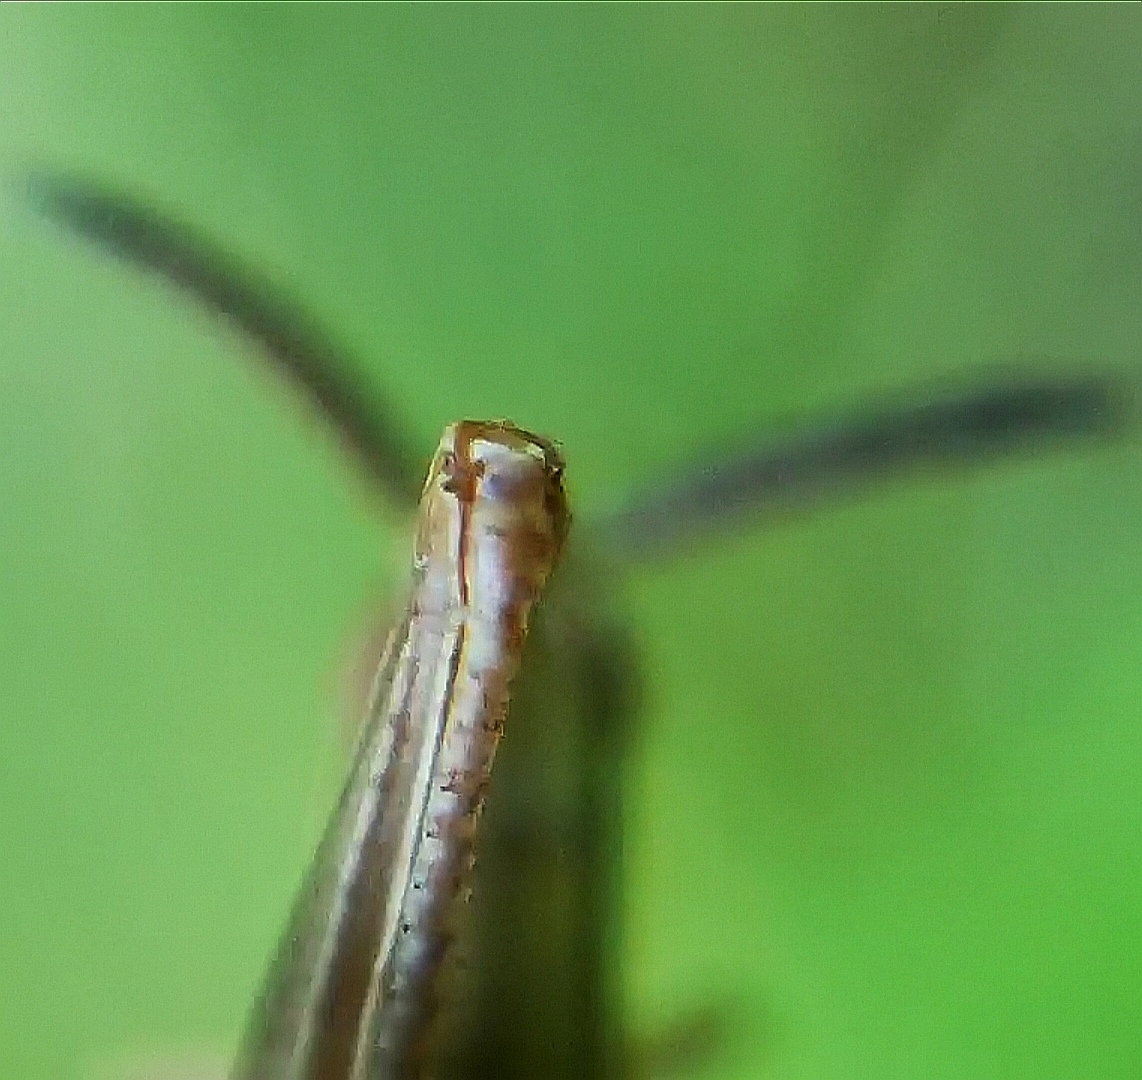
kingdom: Animalia
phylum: Arthropoda
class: Insecta
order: Orthoptera
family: Acrididae
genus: Euthystira
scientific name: Euthystira brachyptera
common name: Small gold grasshopper
